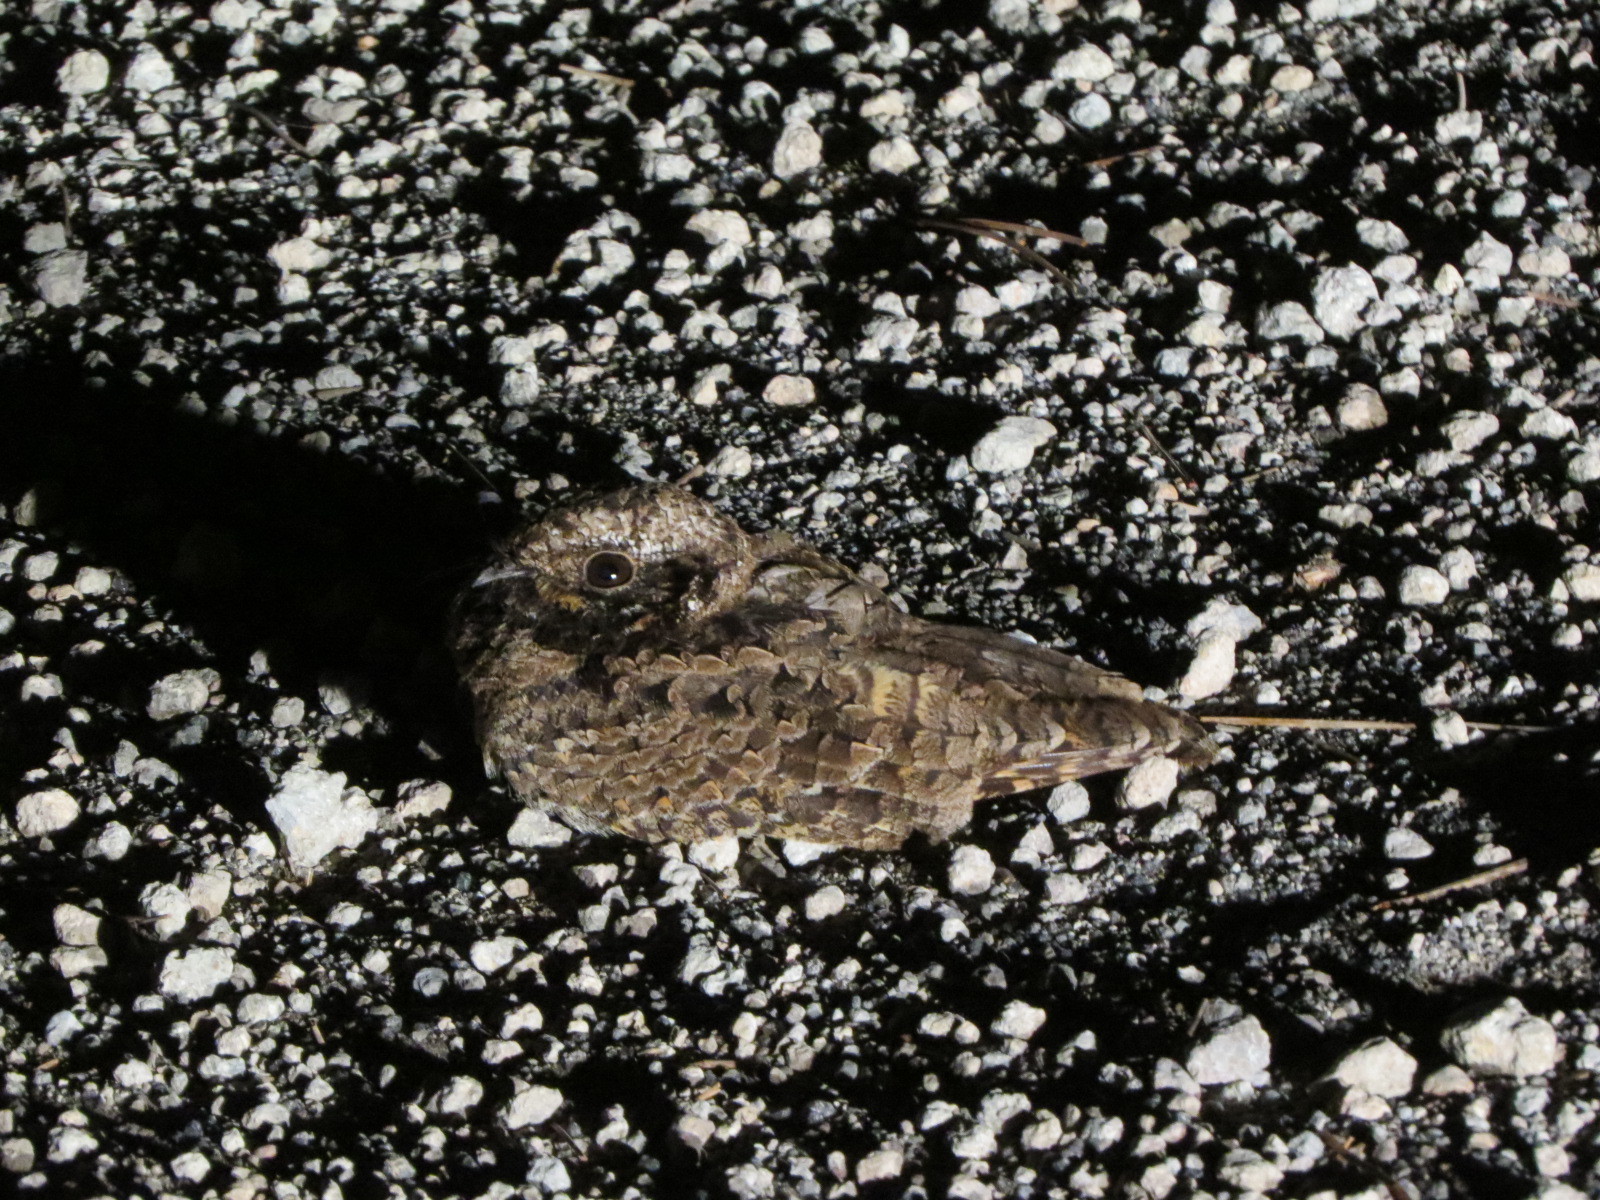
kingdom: Animalia
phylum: Chordata
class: Aves
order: Caprimulgiformes
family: Caprimulgidae
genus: Phalaenoptilus
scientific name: Phalaenoptilus nuttallii
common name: Common poorwill
